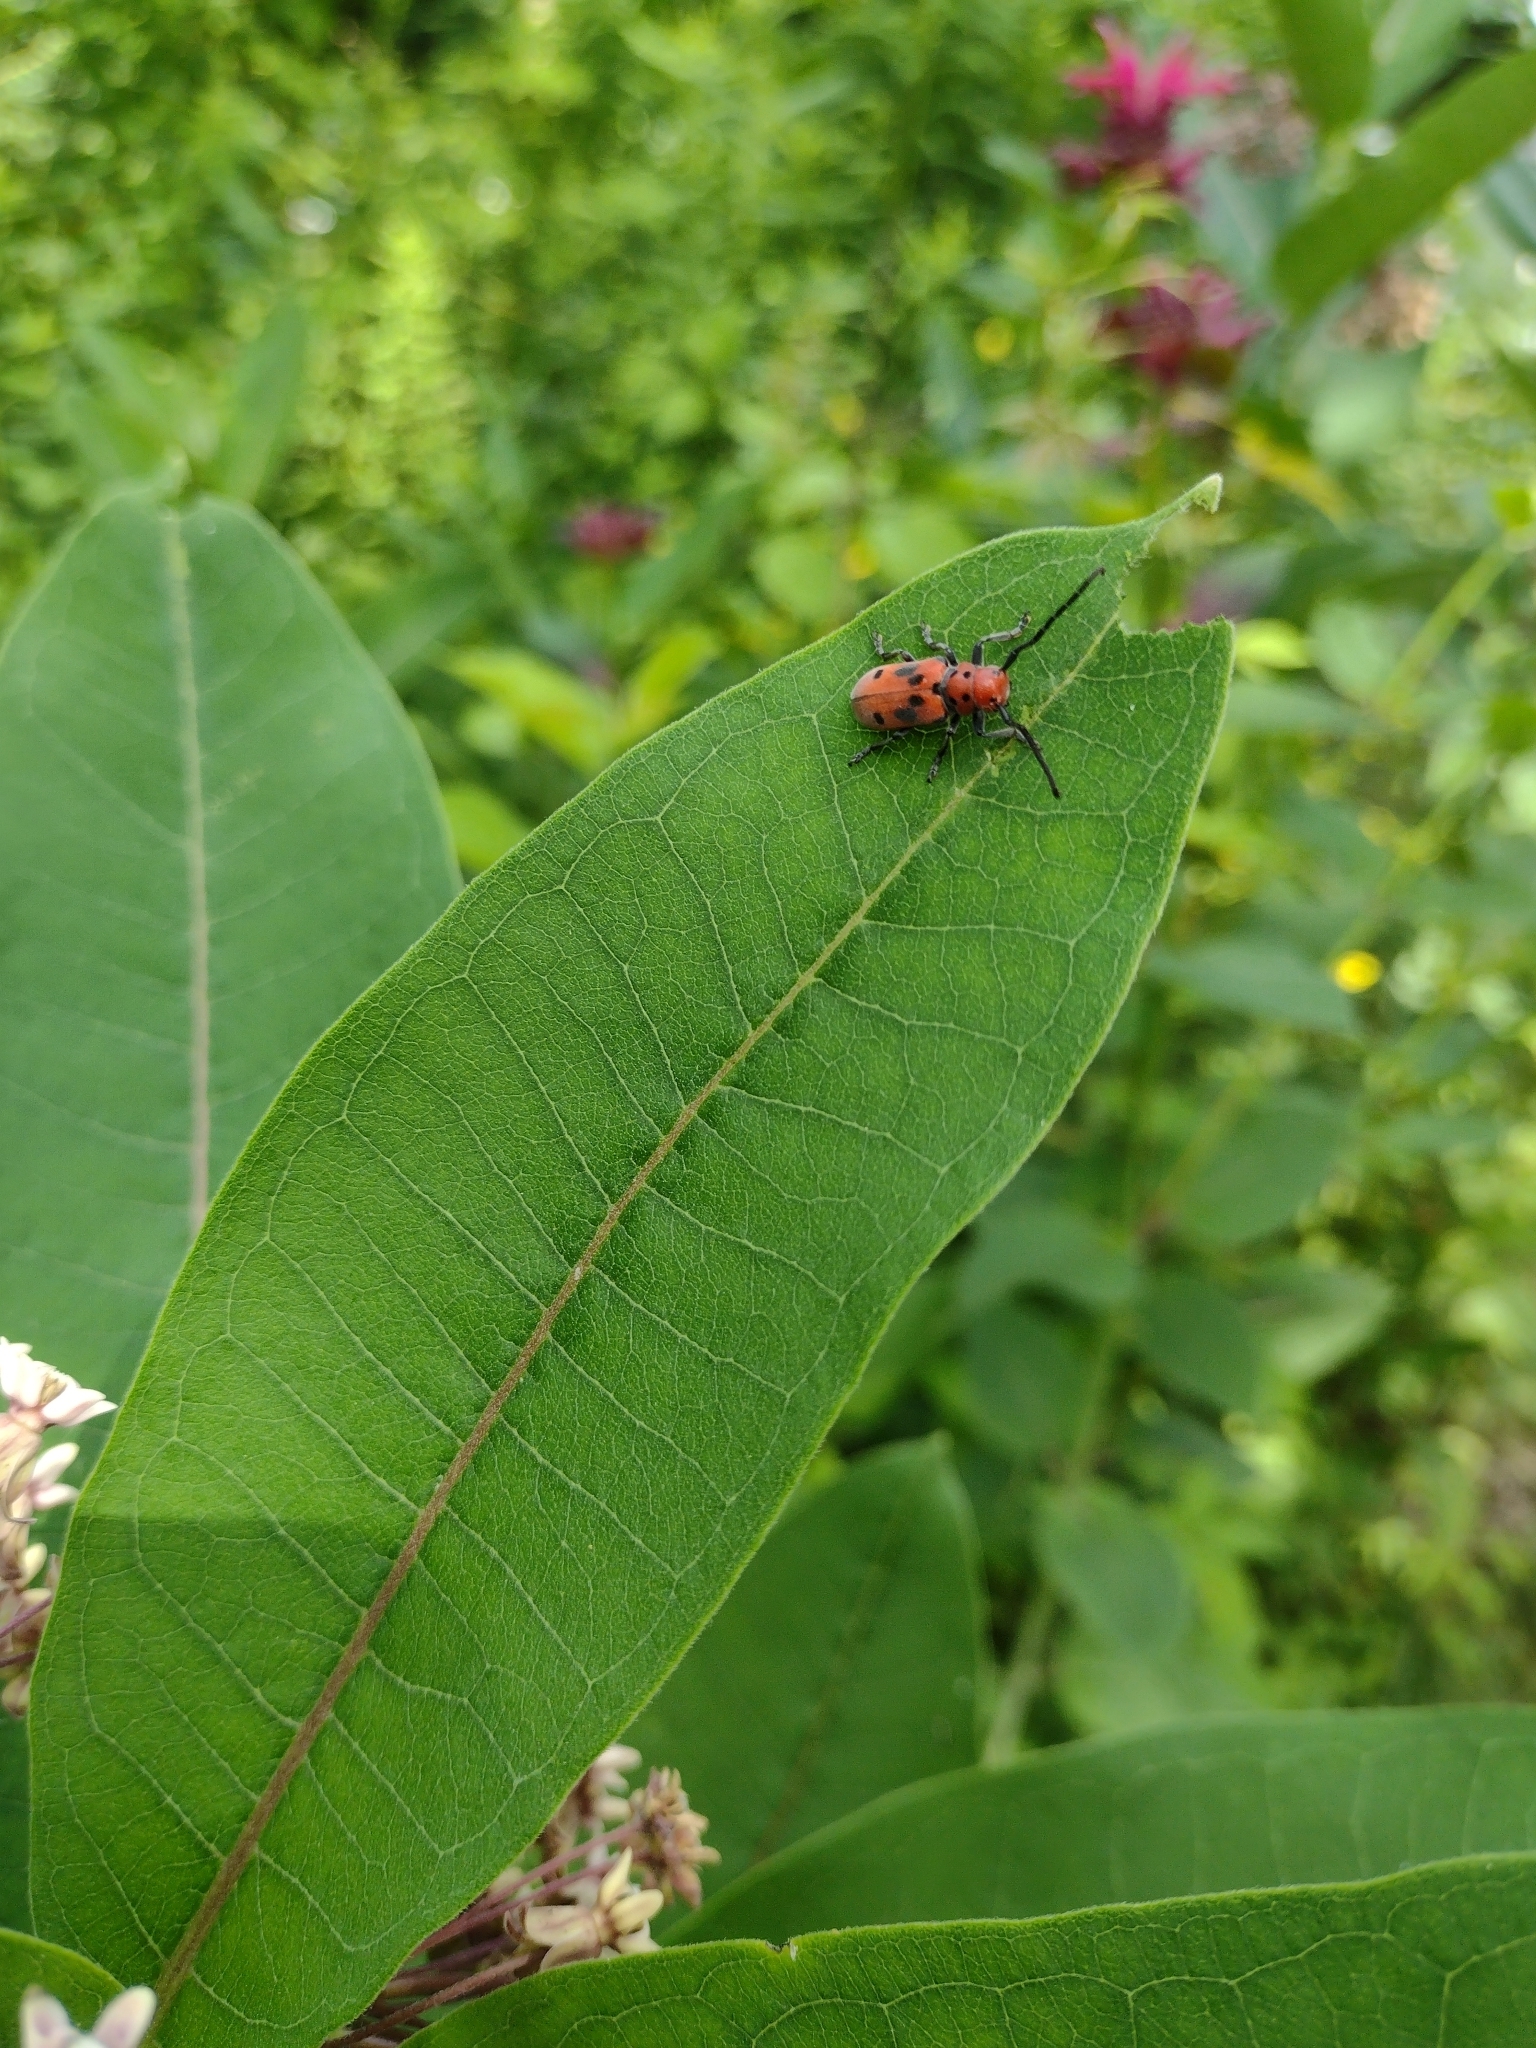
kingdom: Animalia
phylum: Arthropoda
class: Insecta
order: Coleoptera
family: Cerambycidae
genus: Tetraopes
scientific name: Tetraopes tetrophthalmus
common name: Red milkweed beetle
